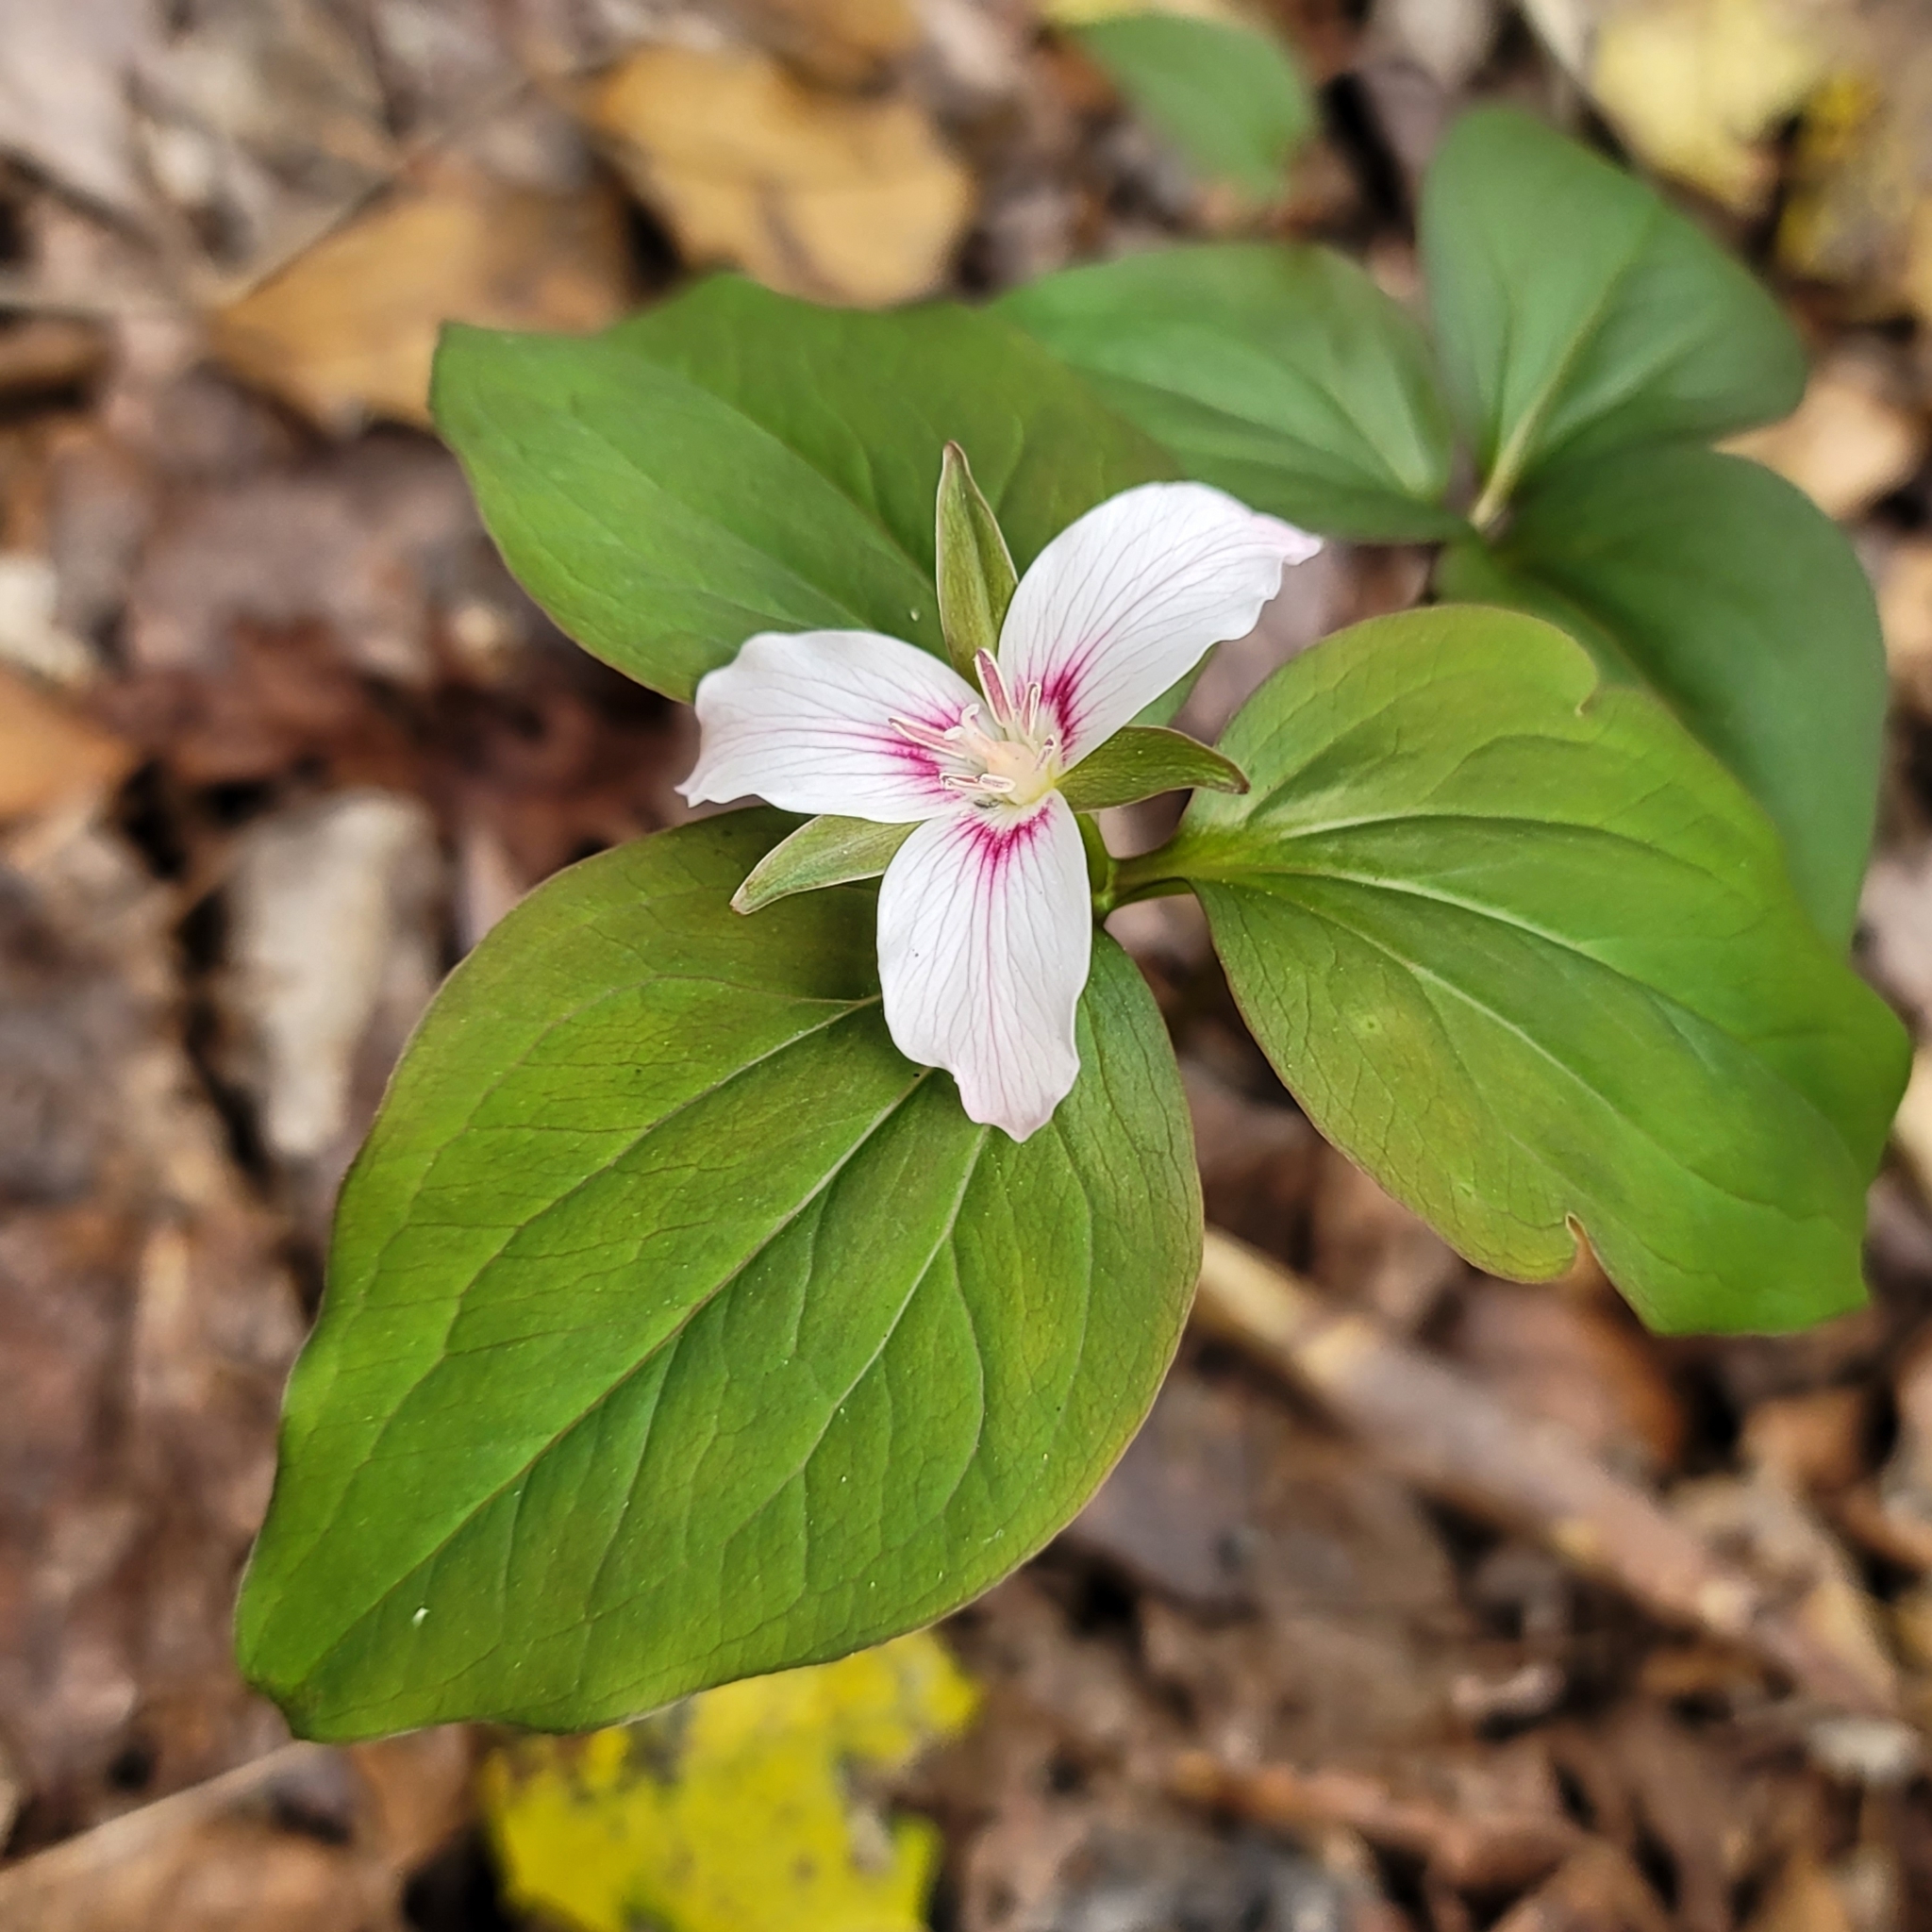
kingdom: Plantae
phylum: Tracheophyta
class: Liliopsida
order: Liliales
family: Melanthiaceae
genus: Trillium
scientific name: Trillium undulatum
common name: Paint trillium
